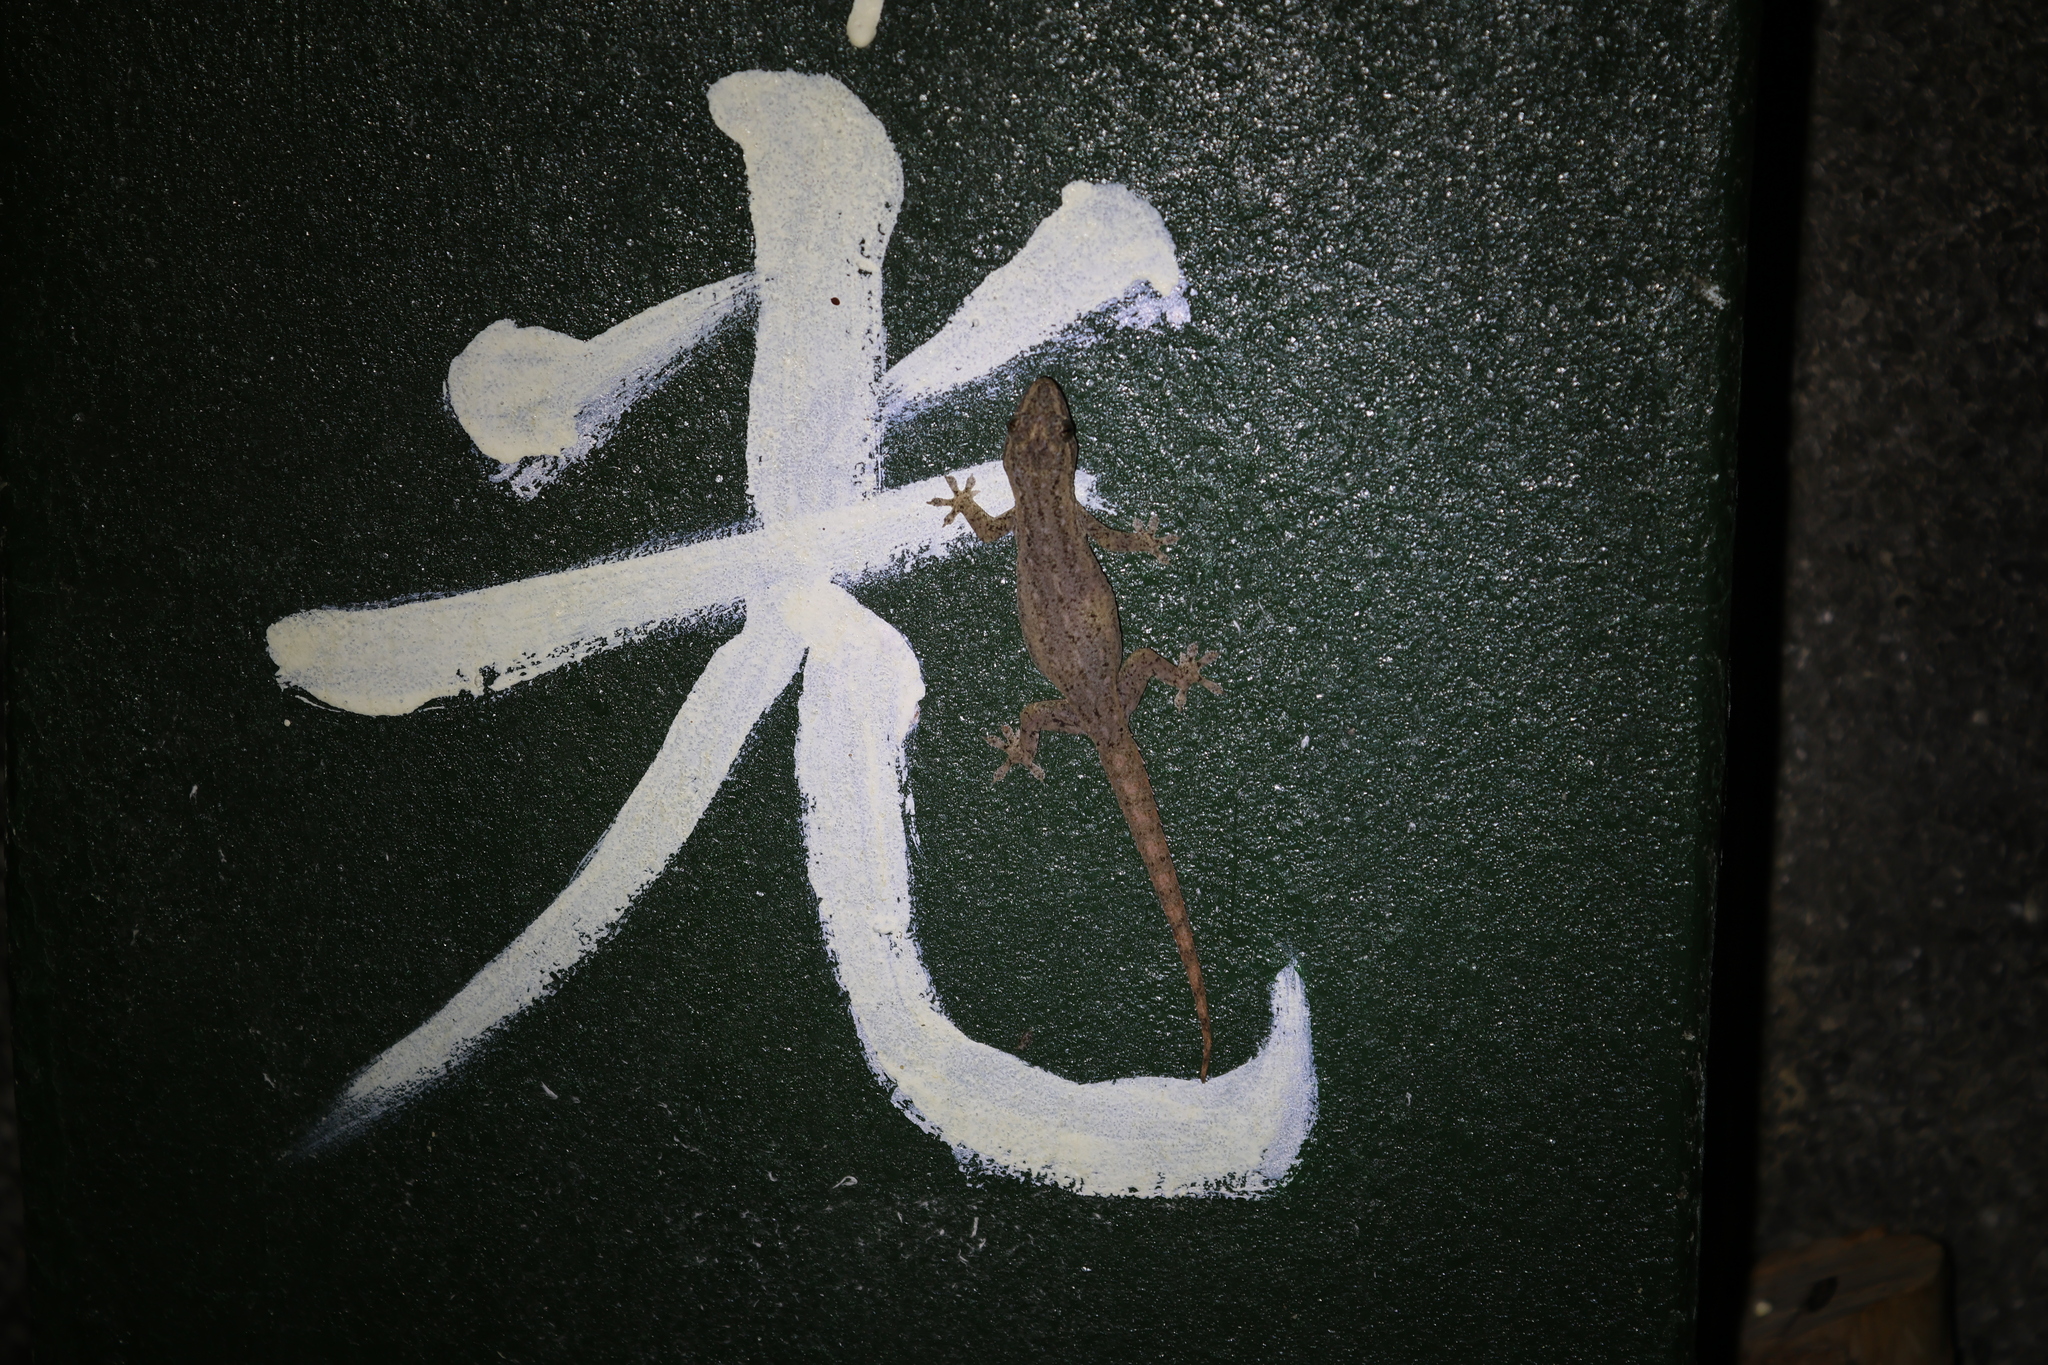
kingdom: Animalia
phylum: Chordata
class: Squamata
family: Gekkonidae
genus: Hemidactylus
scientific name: Hemidactylus frenatus
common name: Common house gecko
